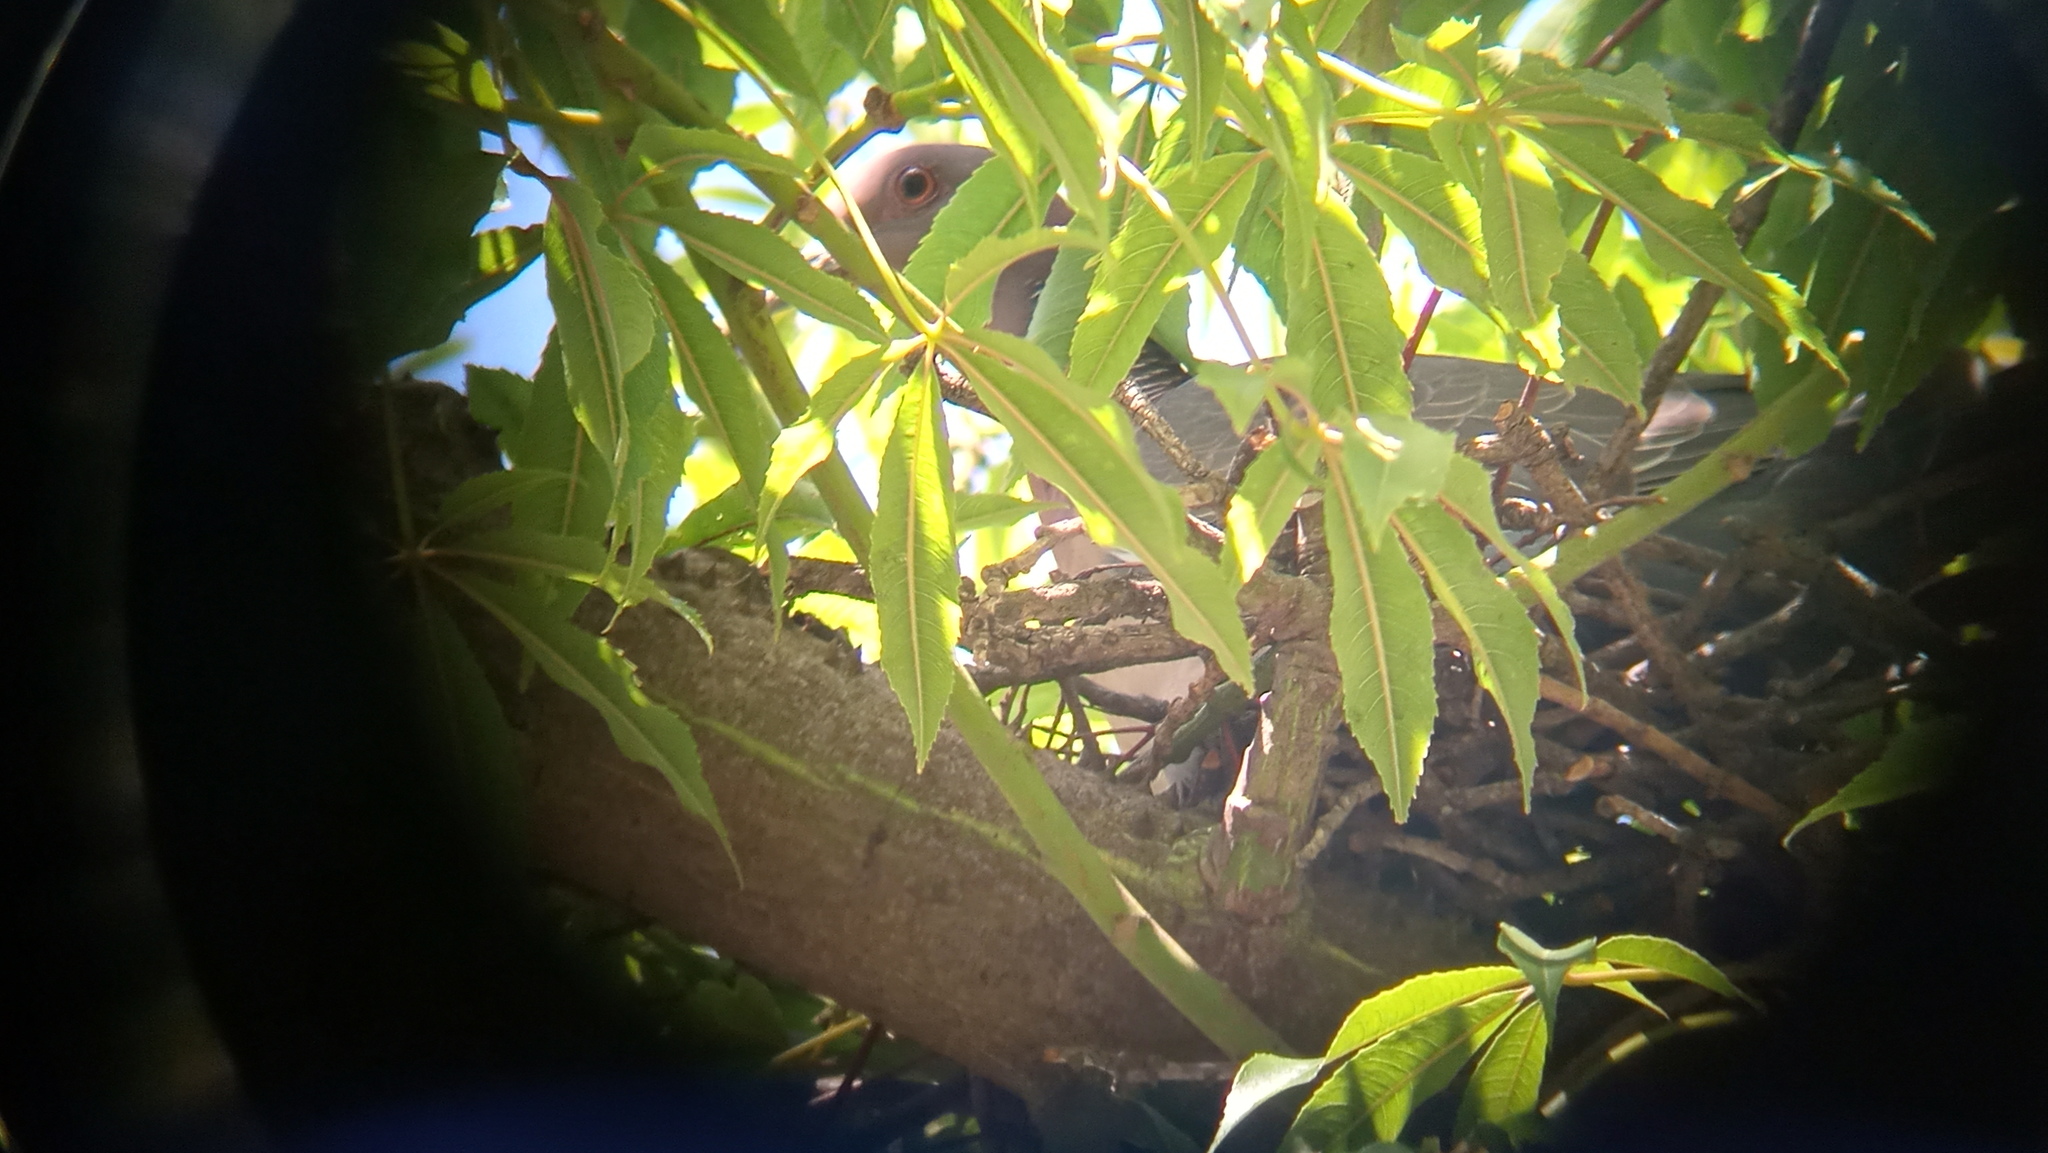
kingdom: Animalia
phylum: Chordata
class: Aves
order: Columbiformes
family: Columbidae
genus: Patagioenas
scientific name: Patagioenas picazuro
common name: Picazuro pigeon
